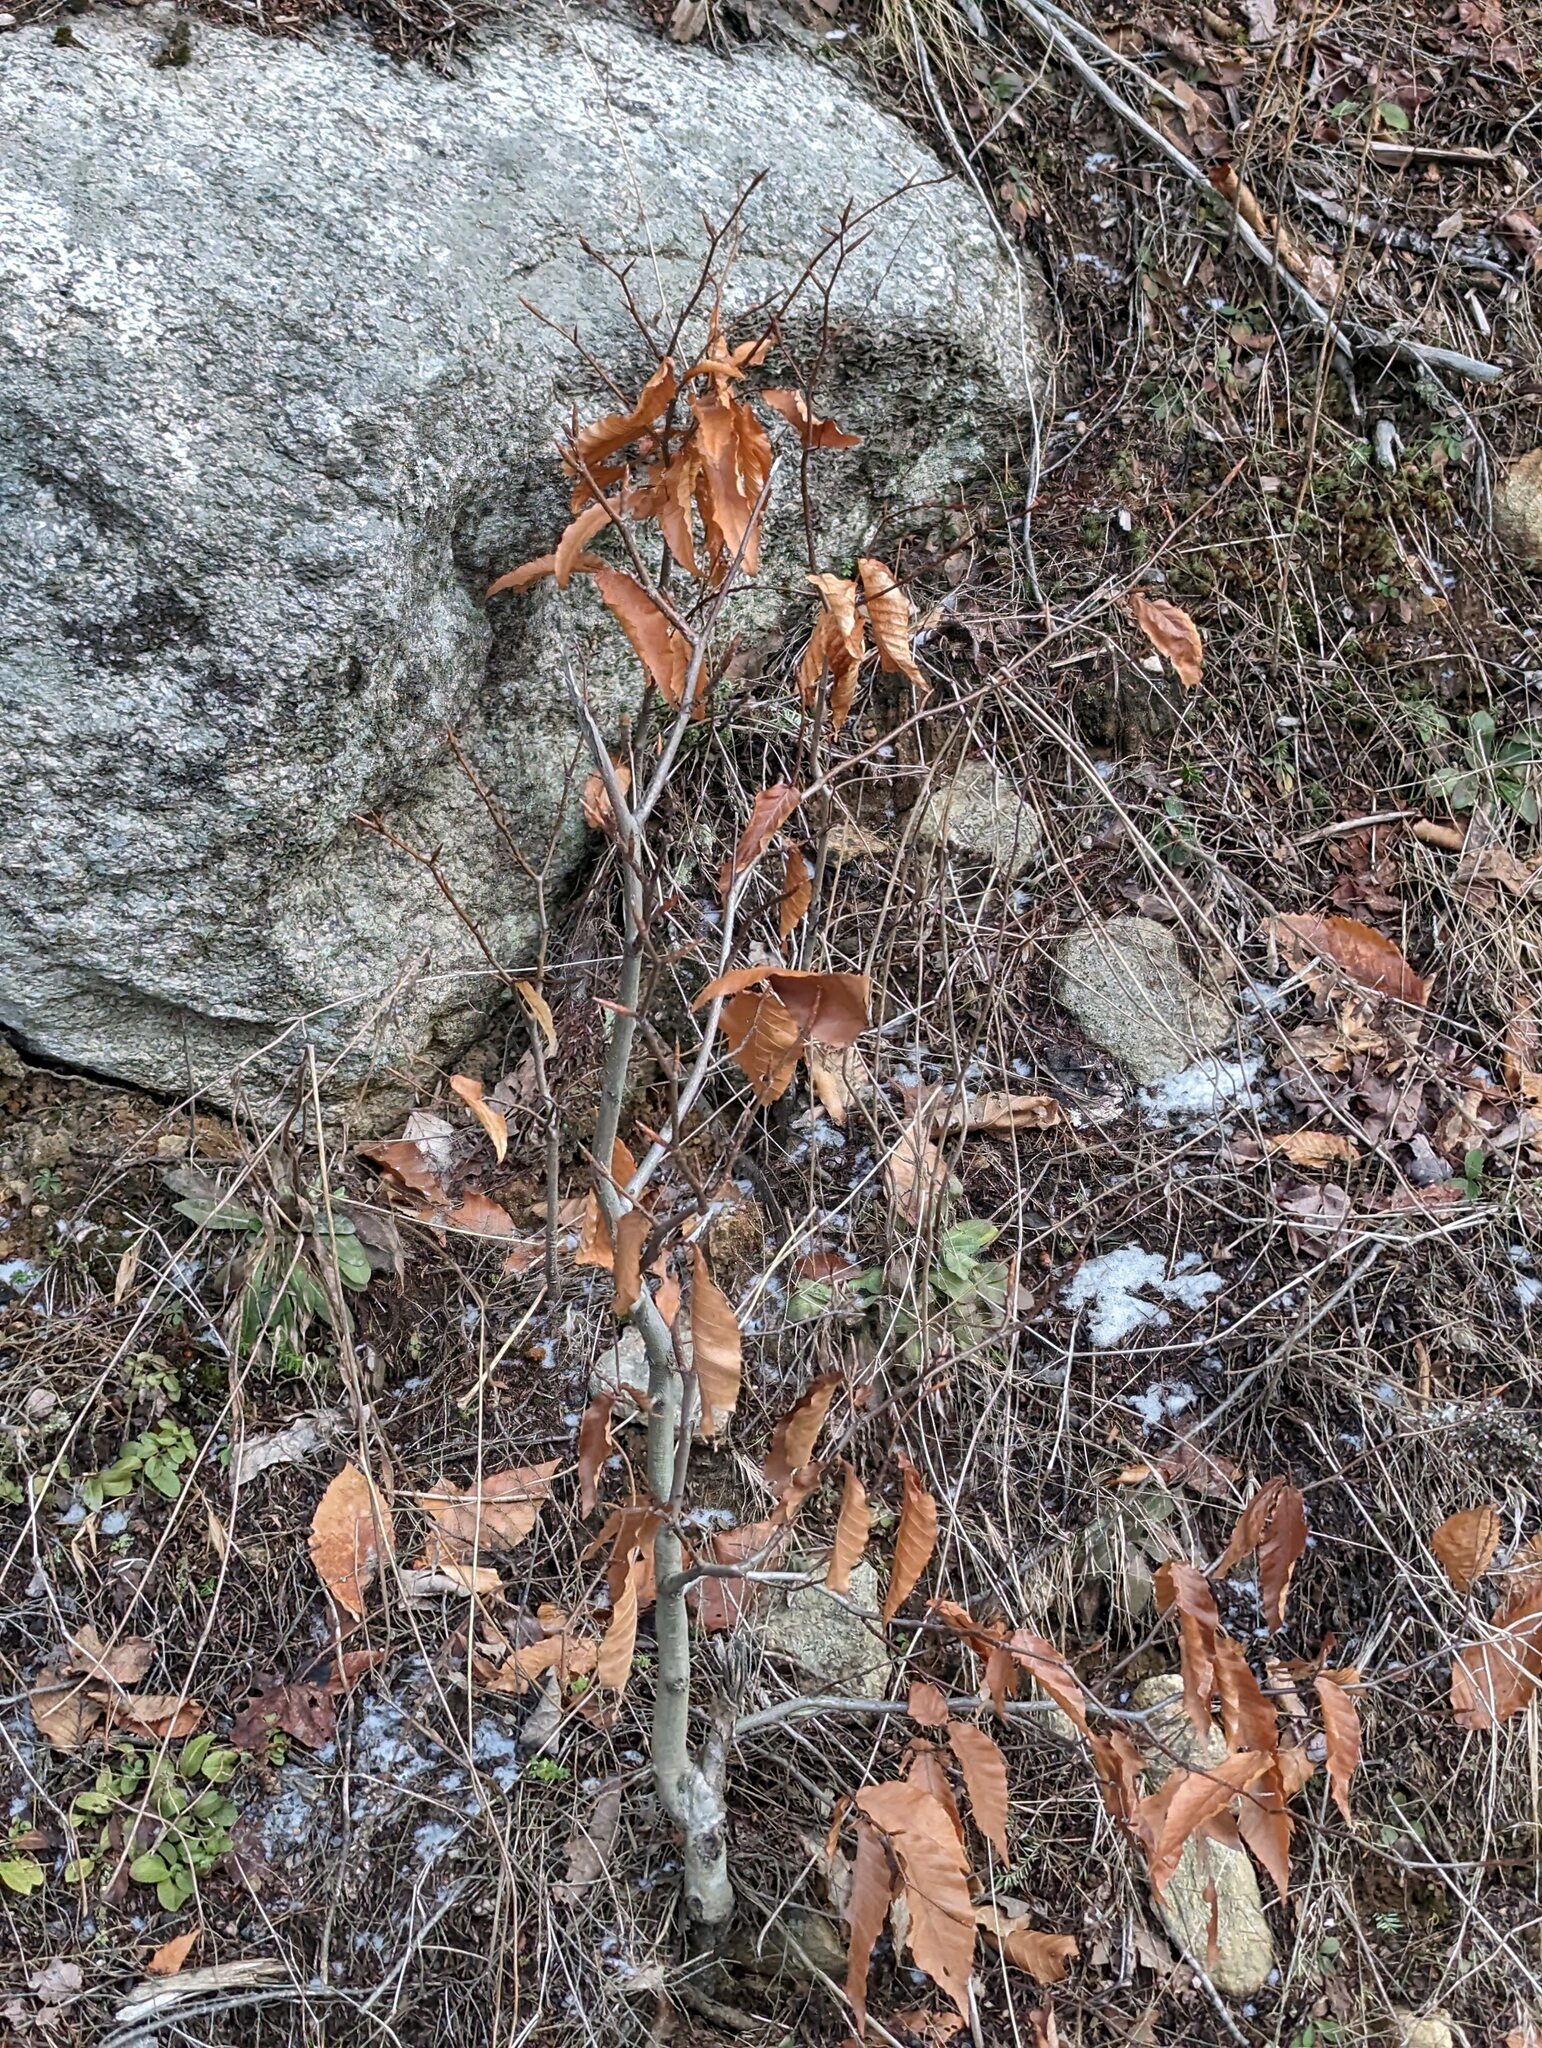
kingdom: Plantae
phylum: Tracheophyta
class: Magnoliopsida
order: Fagales
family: Fagaceae
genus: Fagus
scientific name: Fagus grandifolia
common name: American beech
